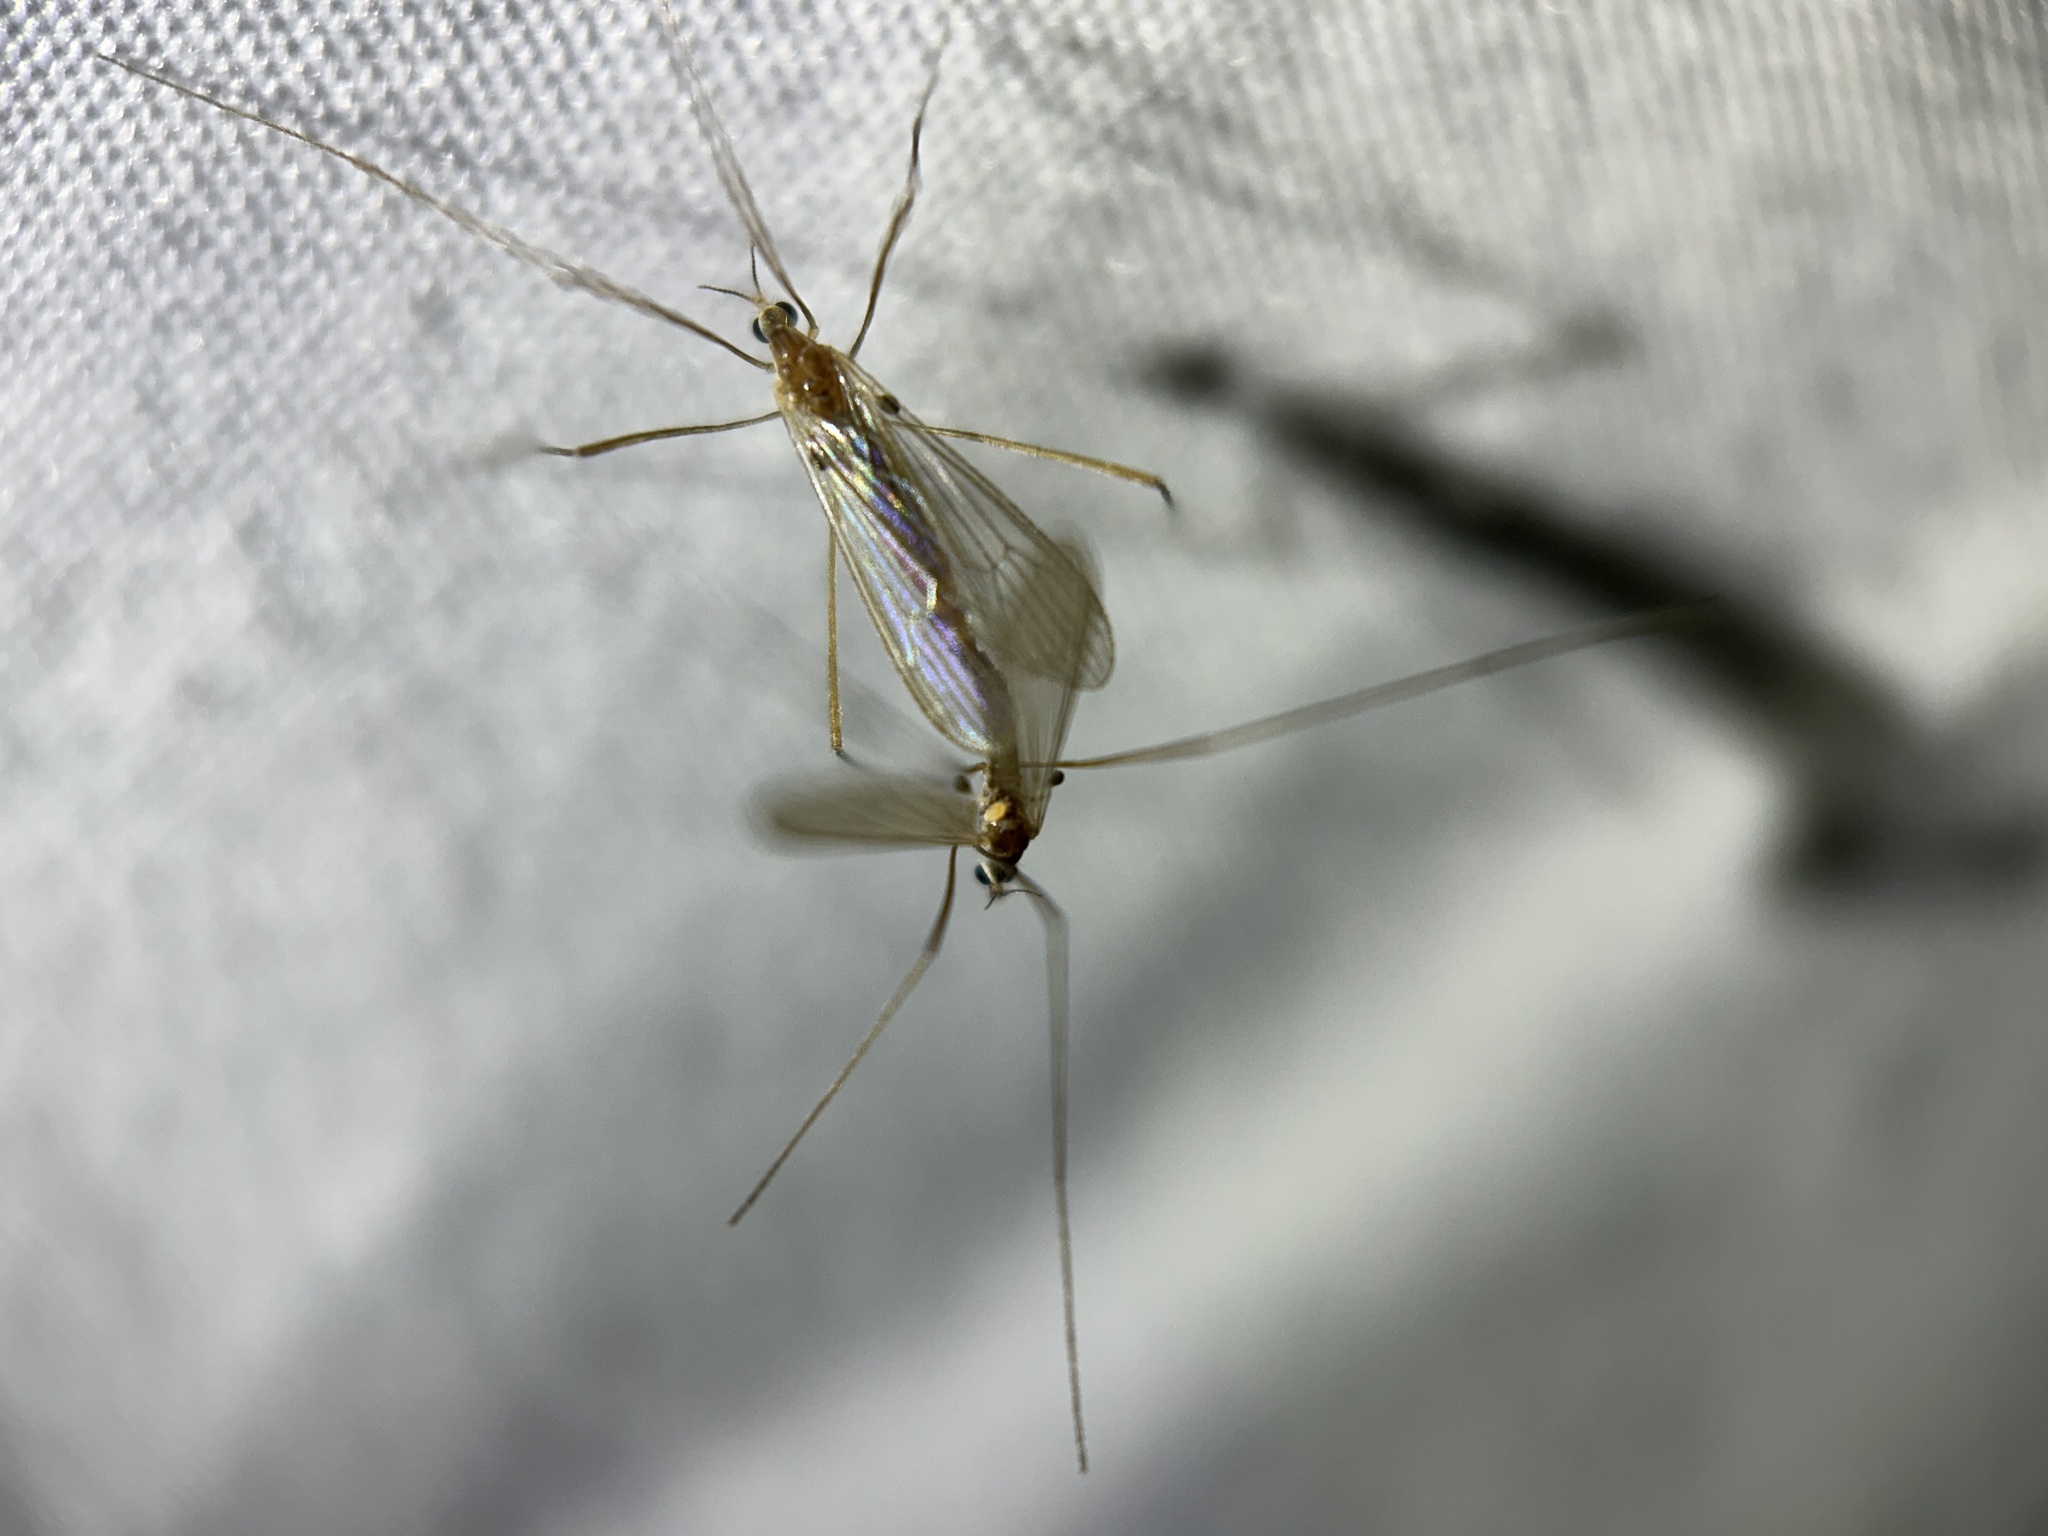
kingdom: Animalia
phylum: Arthropoda
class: Insecta
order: Diptera
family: Limoniidae
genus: Erioptera
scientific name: Erioptera septemtrionis
